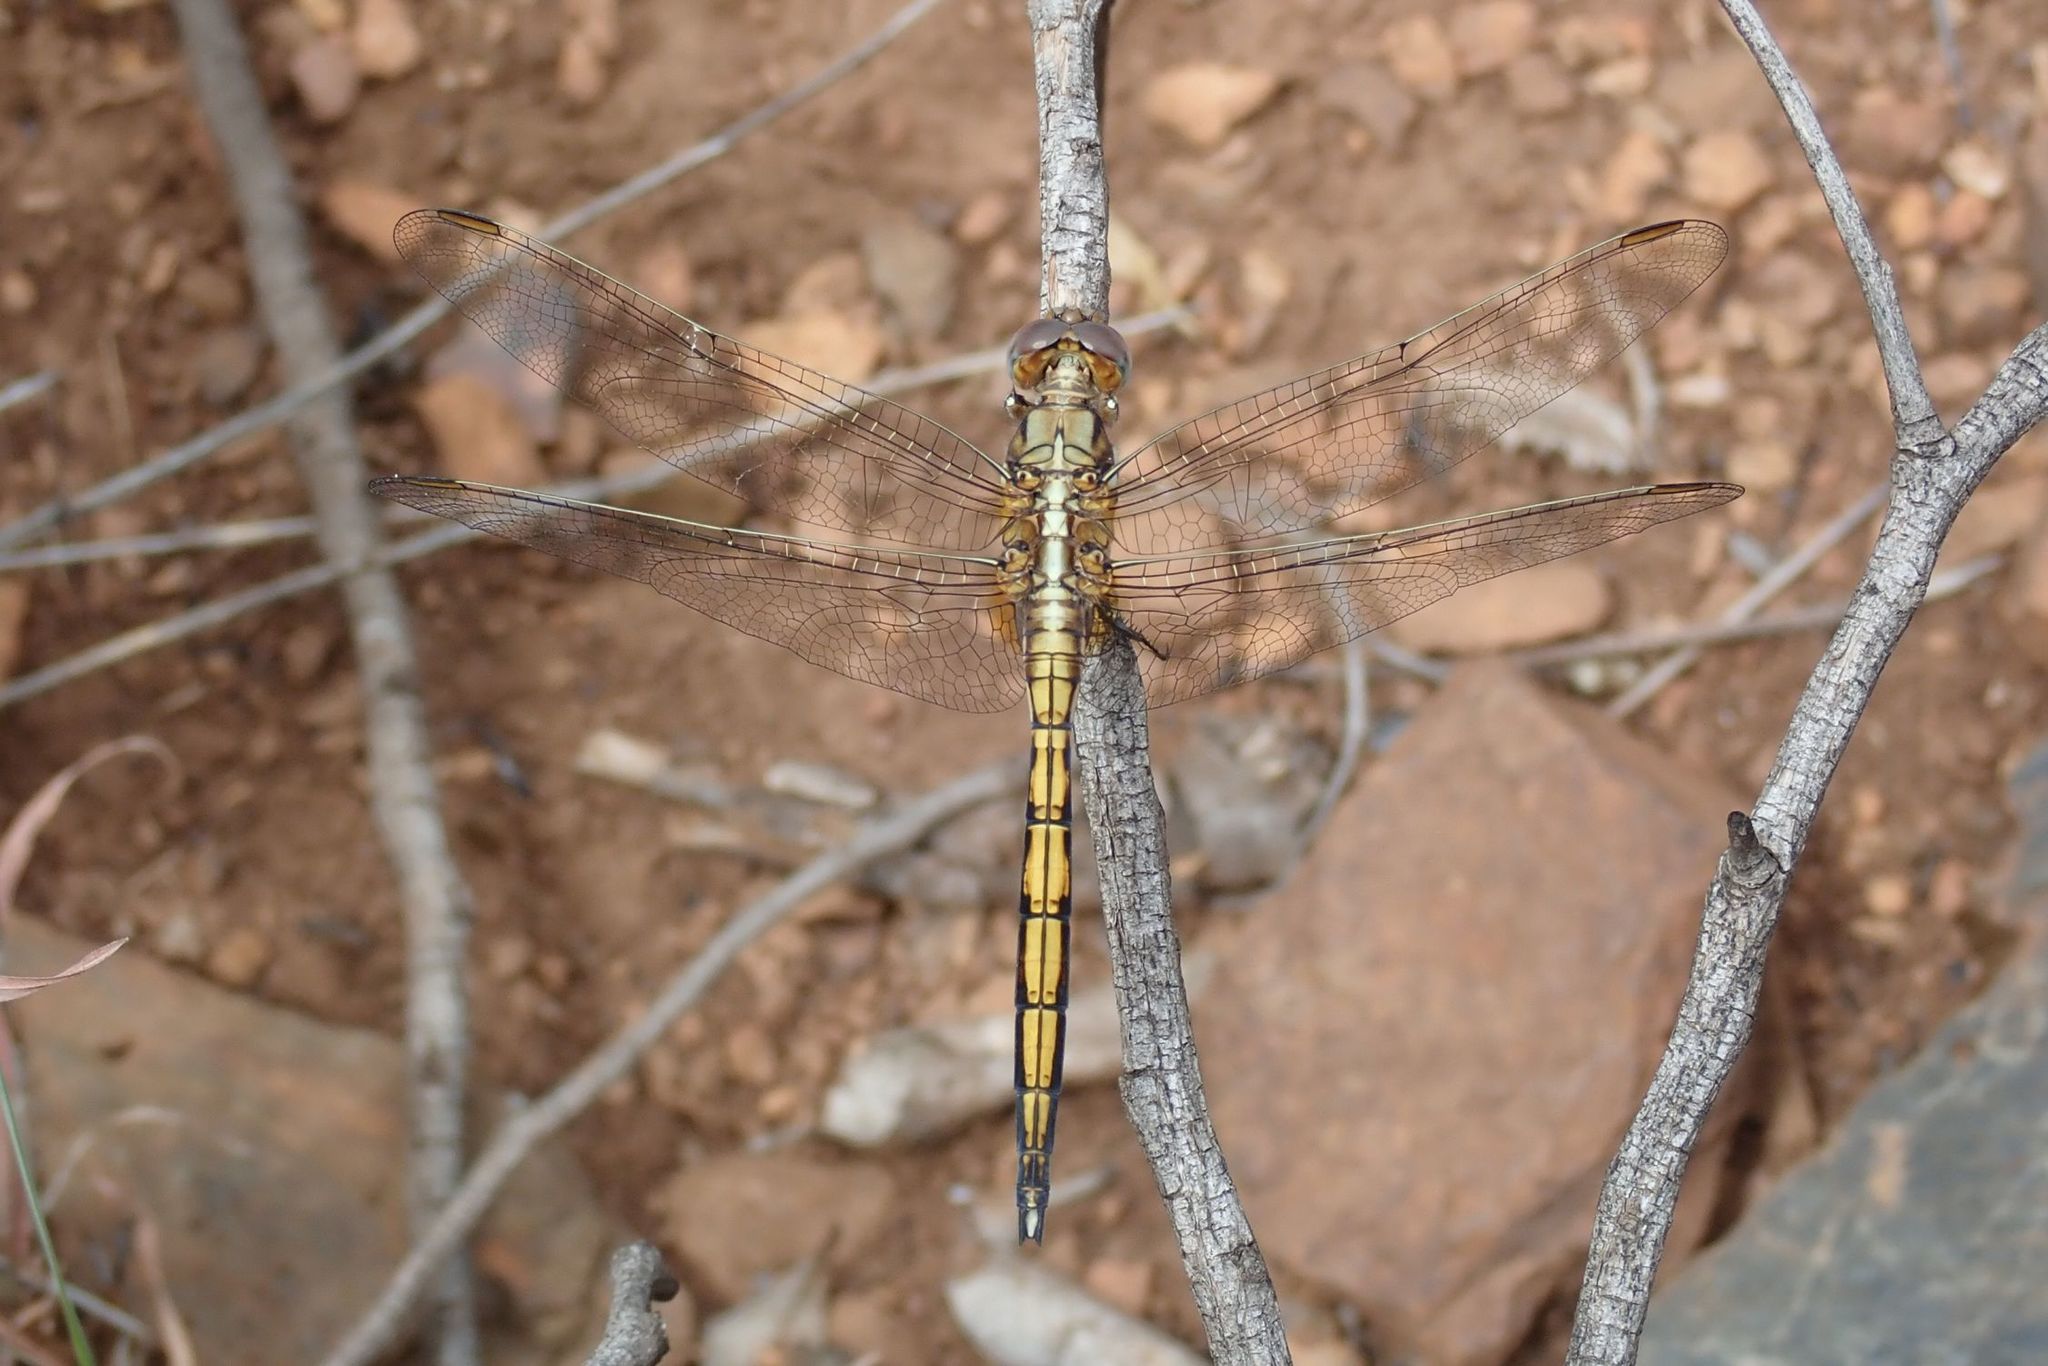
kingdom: Animalia
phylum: Arthropoda
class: Insecta
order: Odonata
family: Libellulidae
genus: Orthetrum
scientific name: Orthetrum chrysostigma
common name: Epaulet skimmer
